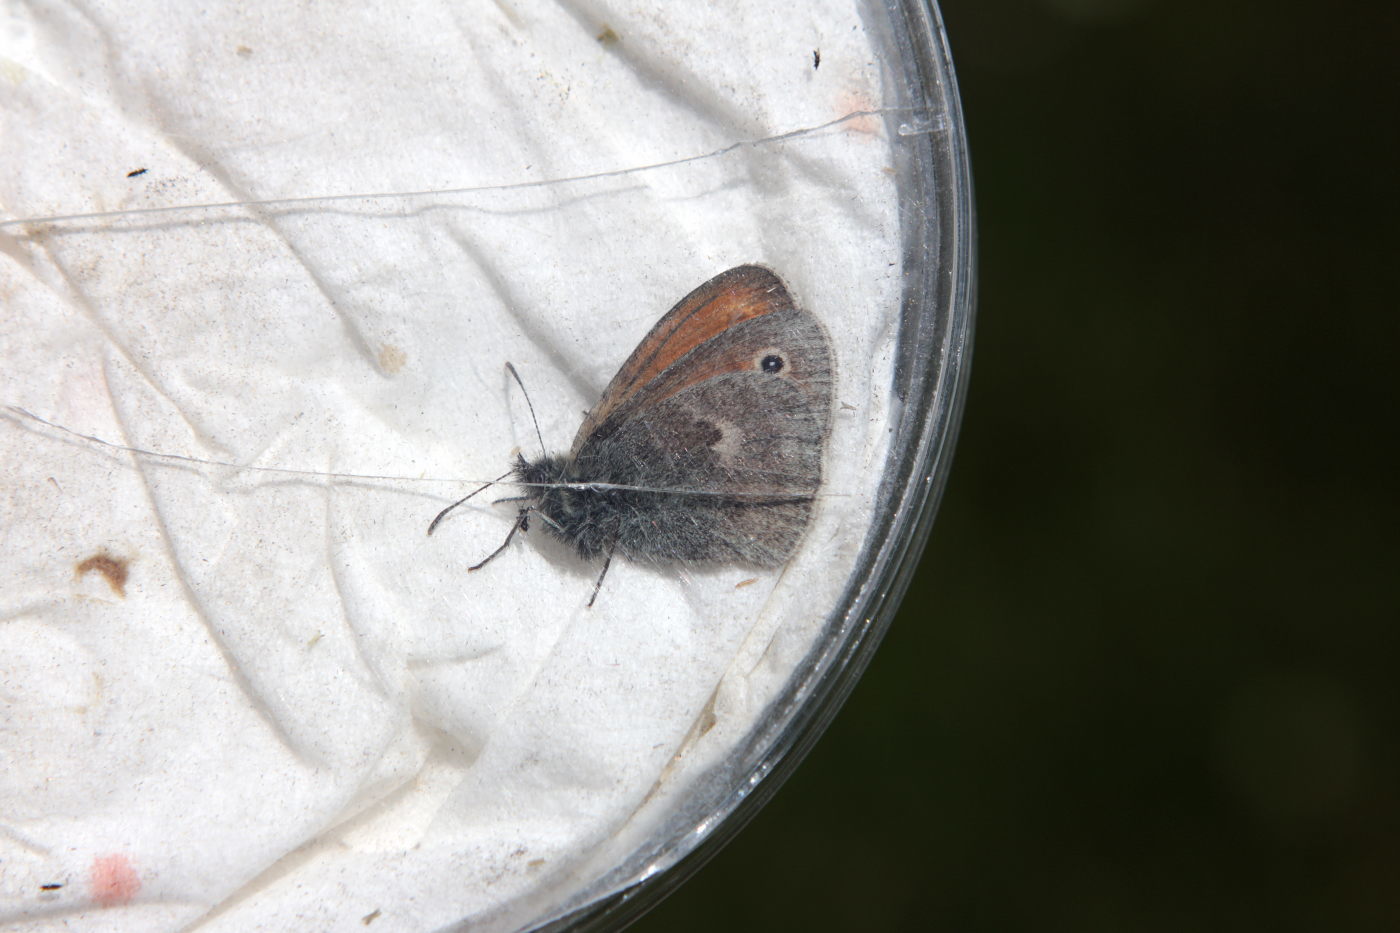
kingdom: Animalia
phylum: Arthropoda
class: Insecta
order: Lepidoptera
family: Nymphalidae
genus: Coenonympha
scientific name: Coenonympha pamphilus
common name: Small heath
